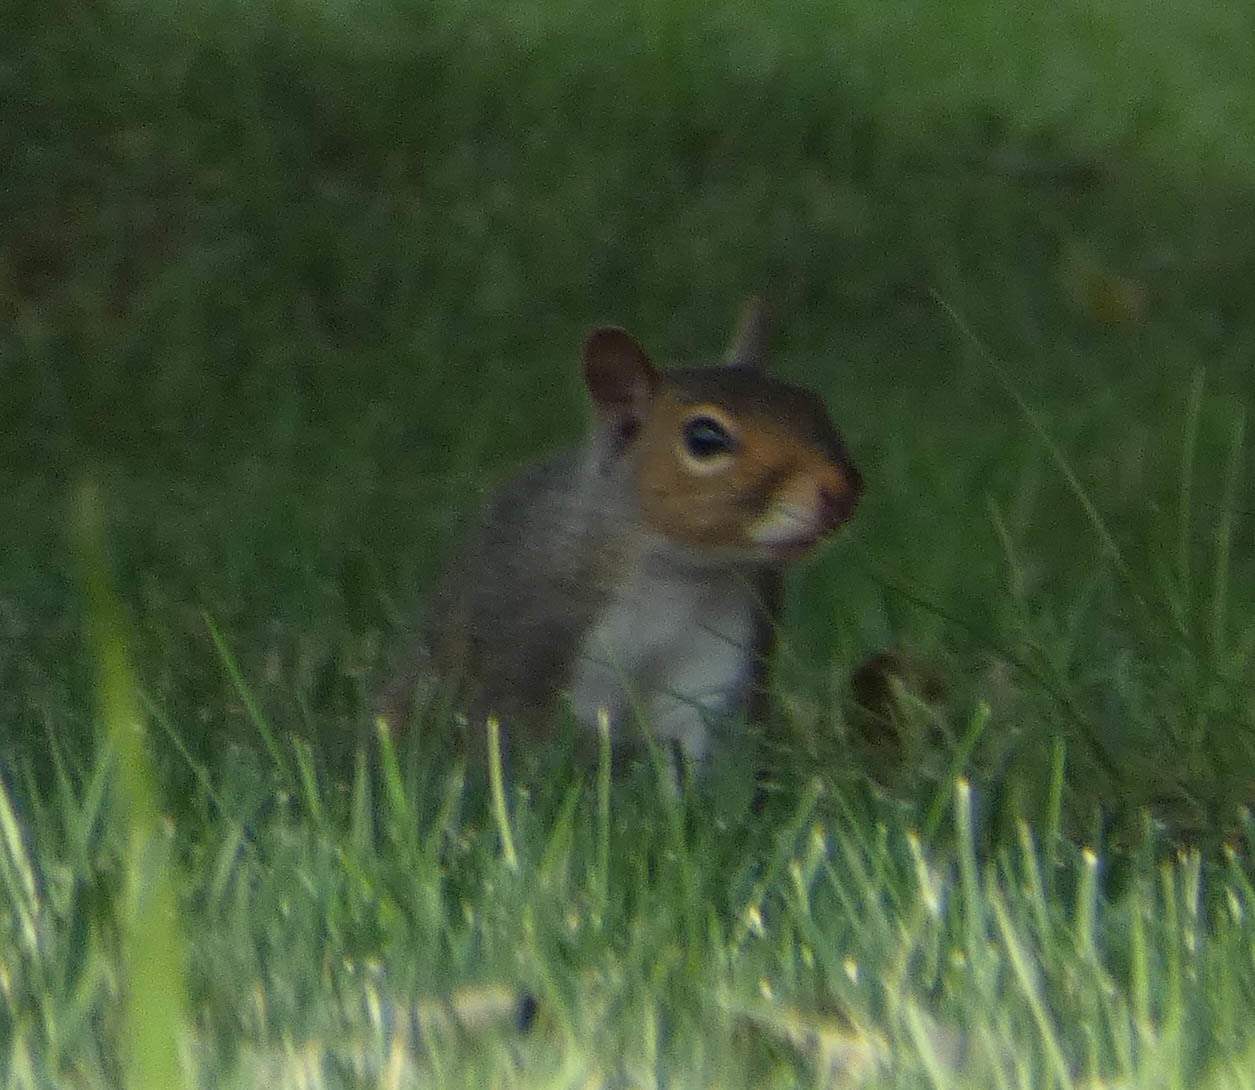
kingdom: Animalia
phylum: Chordata
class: Mammalia
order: Rodentia
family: Sciuridae
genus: Sciurus
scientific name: Sciurus carolinensis
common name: Eastern gray squirrel
